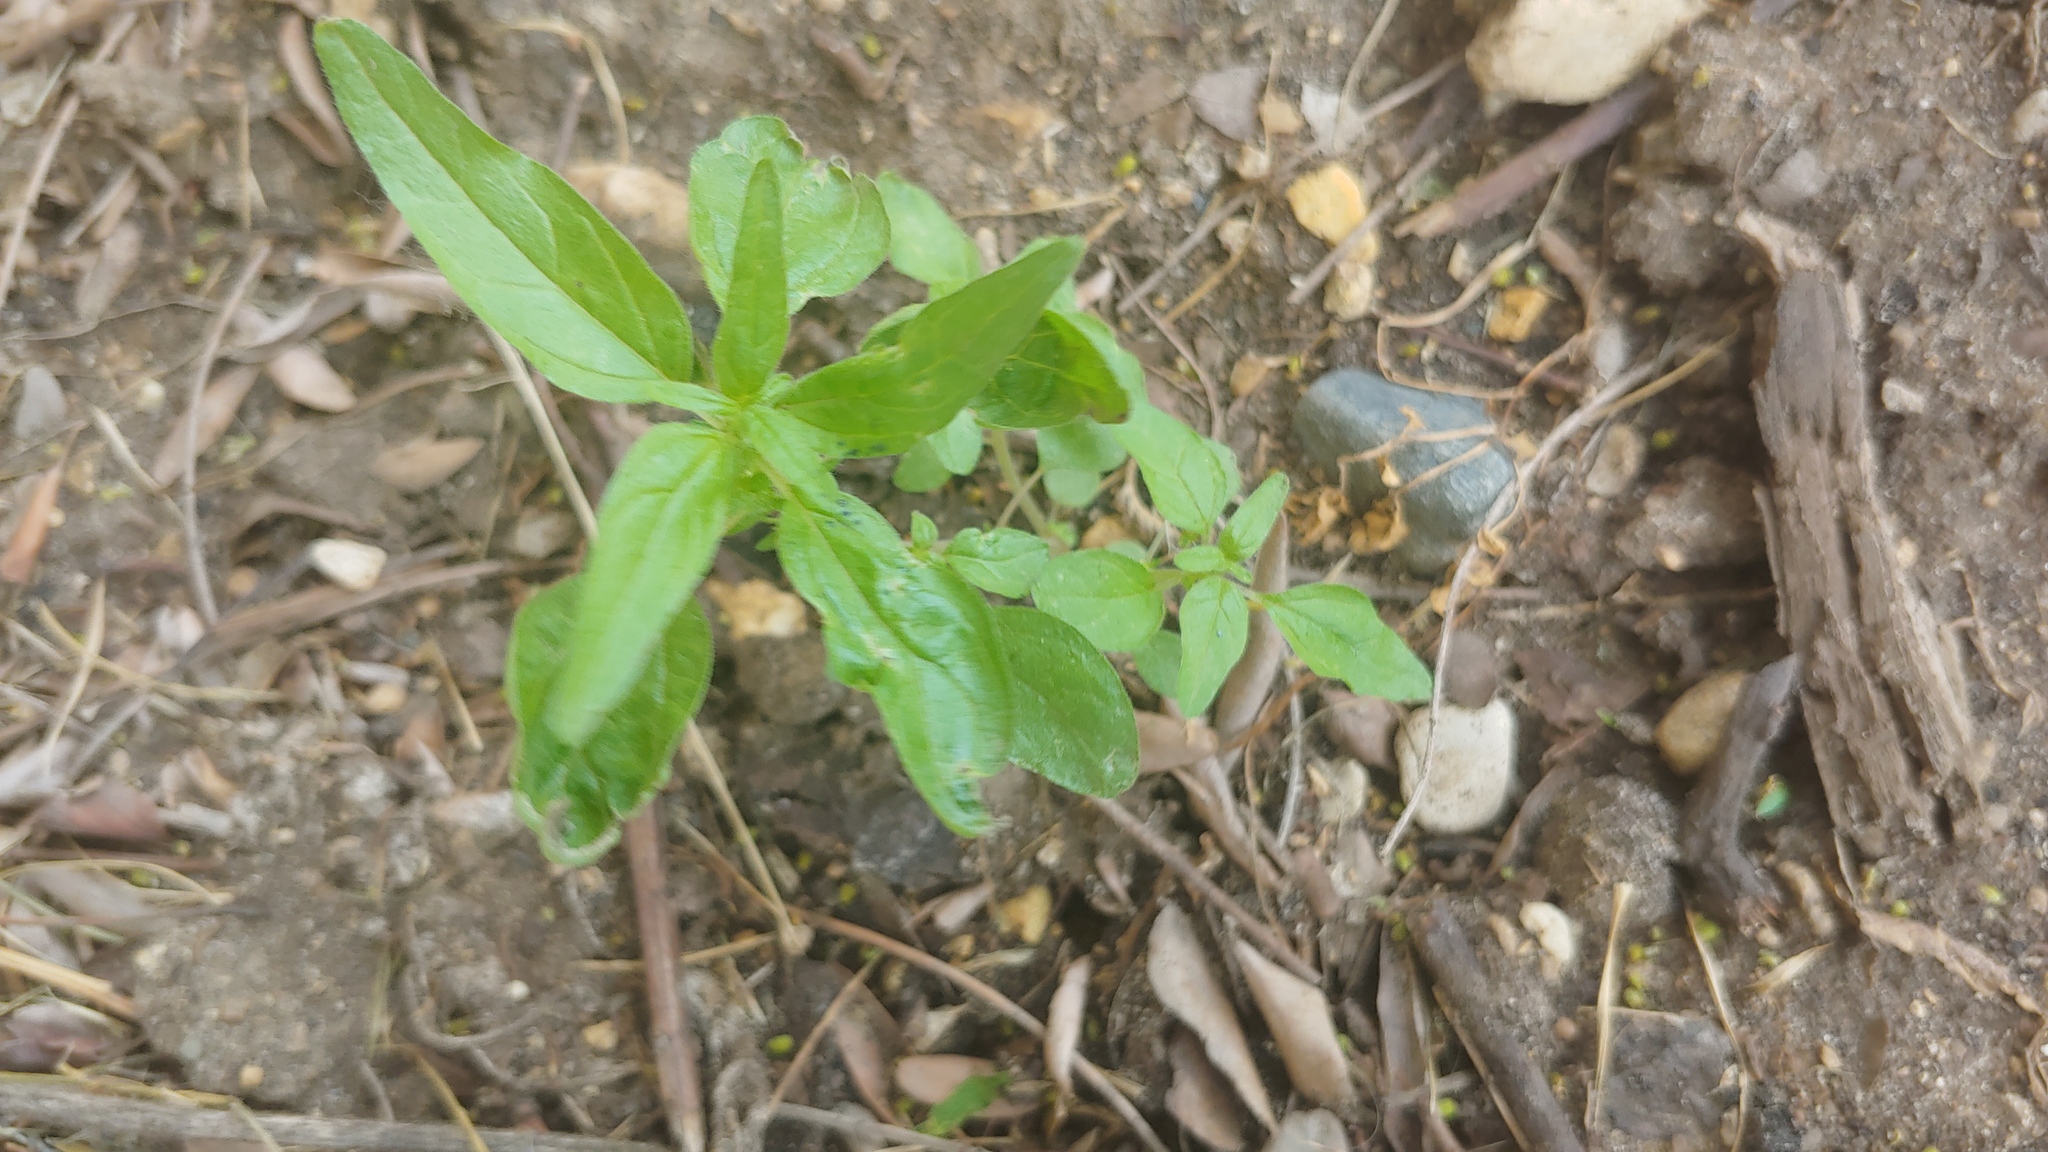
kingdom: Plantae
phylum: Tracheophyta
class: Magnoliopsida
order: Rosales
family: Urticaceae
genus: Parietaria
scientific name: Parietaria pensylvanica
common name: Pennsylvania pellitory
